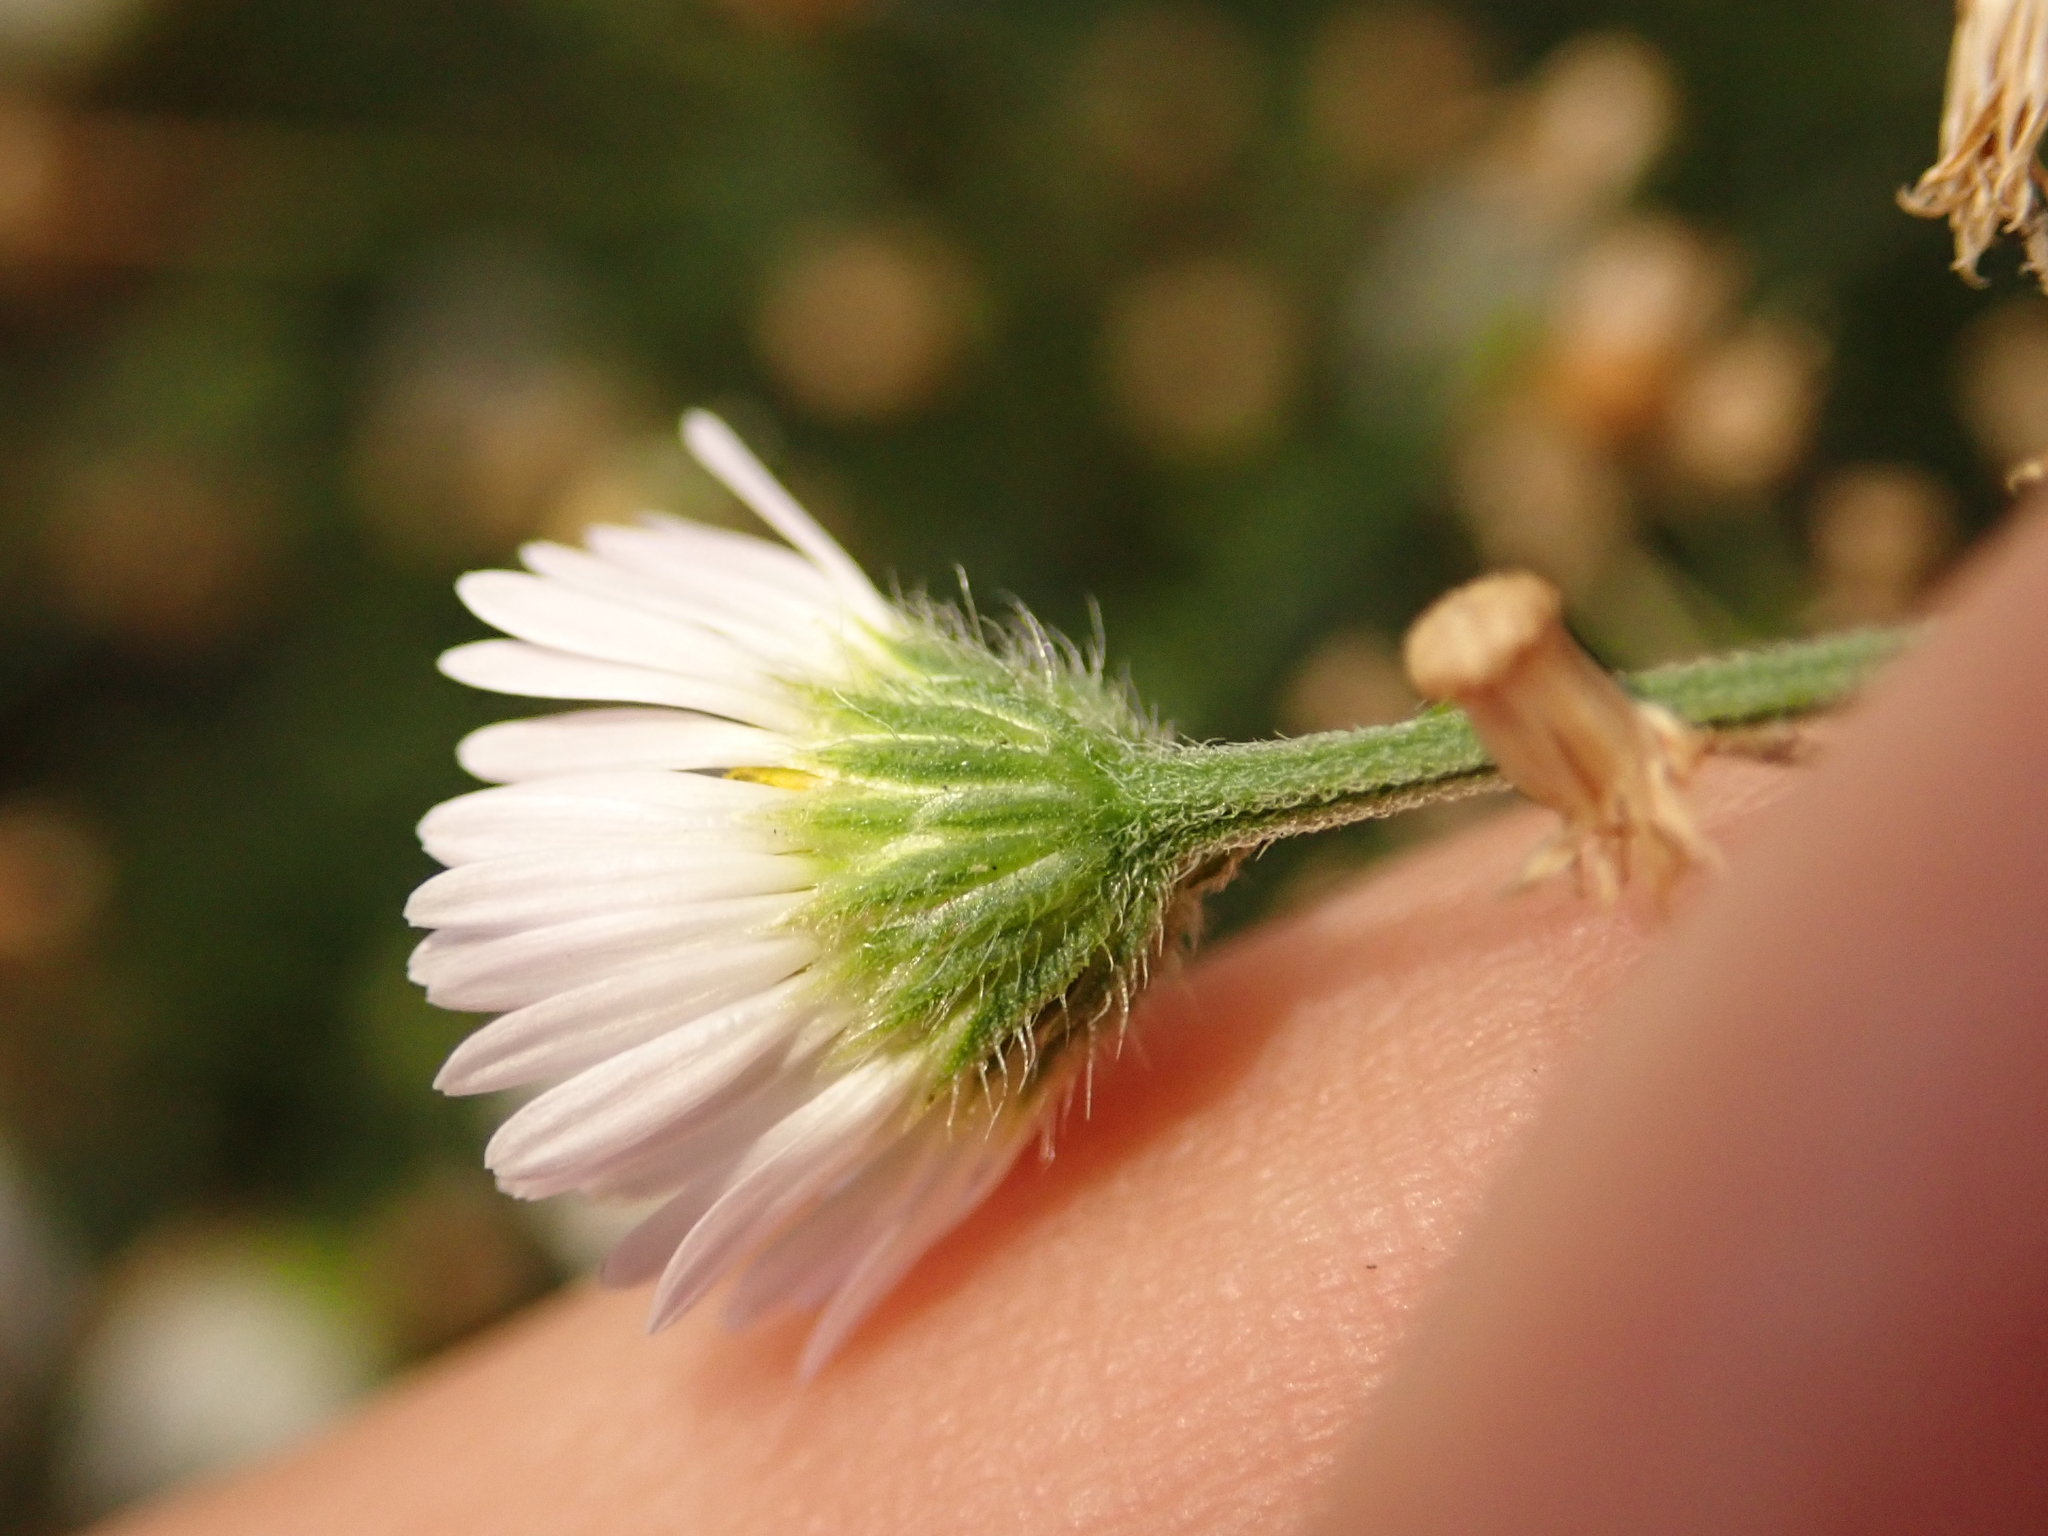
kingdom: Plantae
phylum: Tracheophyta
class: Magnoliopsida
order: Asterales
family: Asteraceae
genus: Erigeron
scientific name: Erigeron annuus
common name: Tall fleabane
